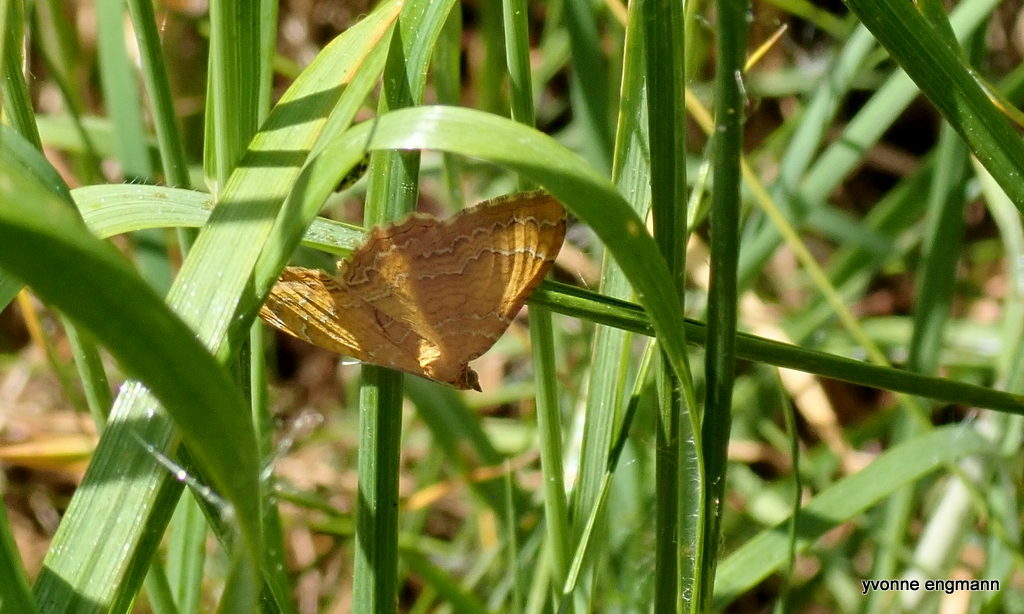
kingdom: Animalia
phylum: Arthropoda
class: Insecta
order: Lepidoptera
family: Geometridae
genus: Camptogramma
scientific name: Camptogramma bilineata
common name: Yellow shell
